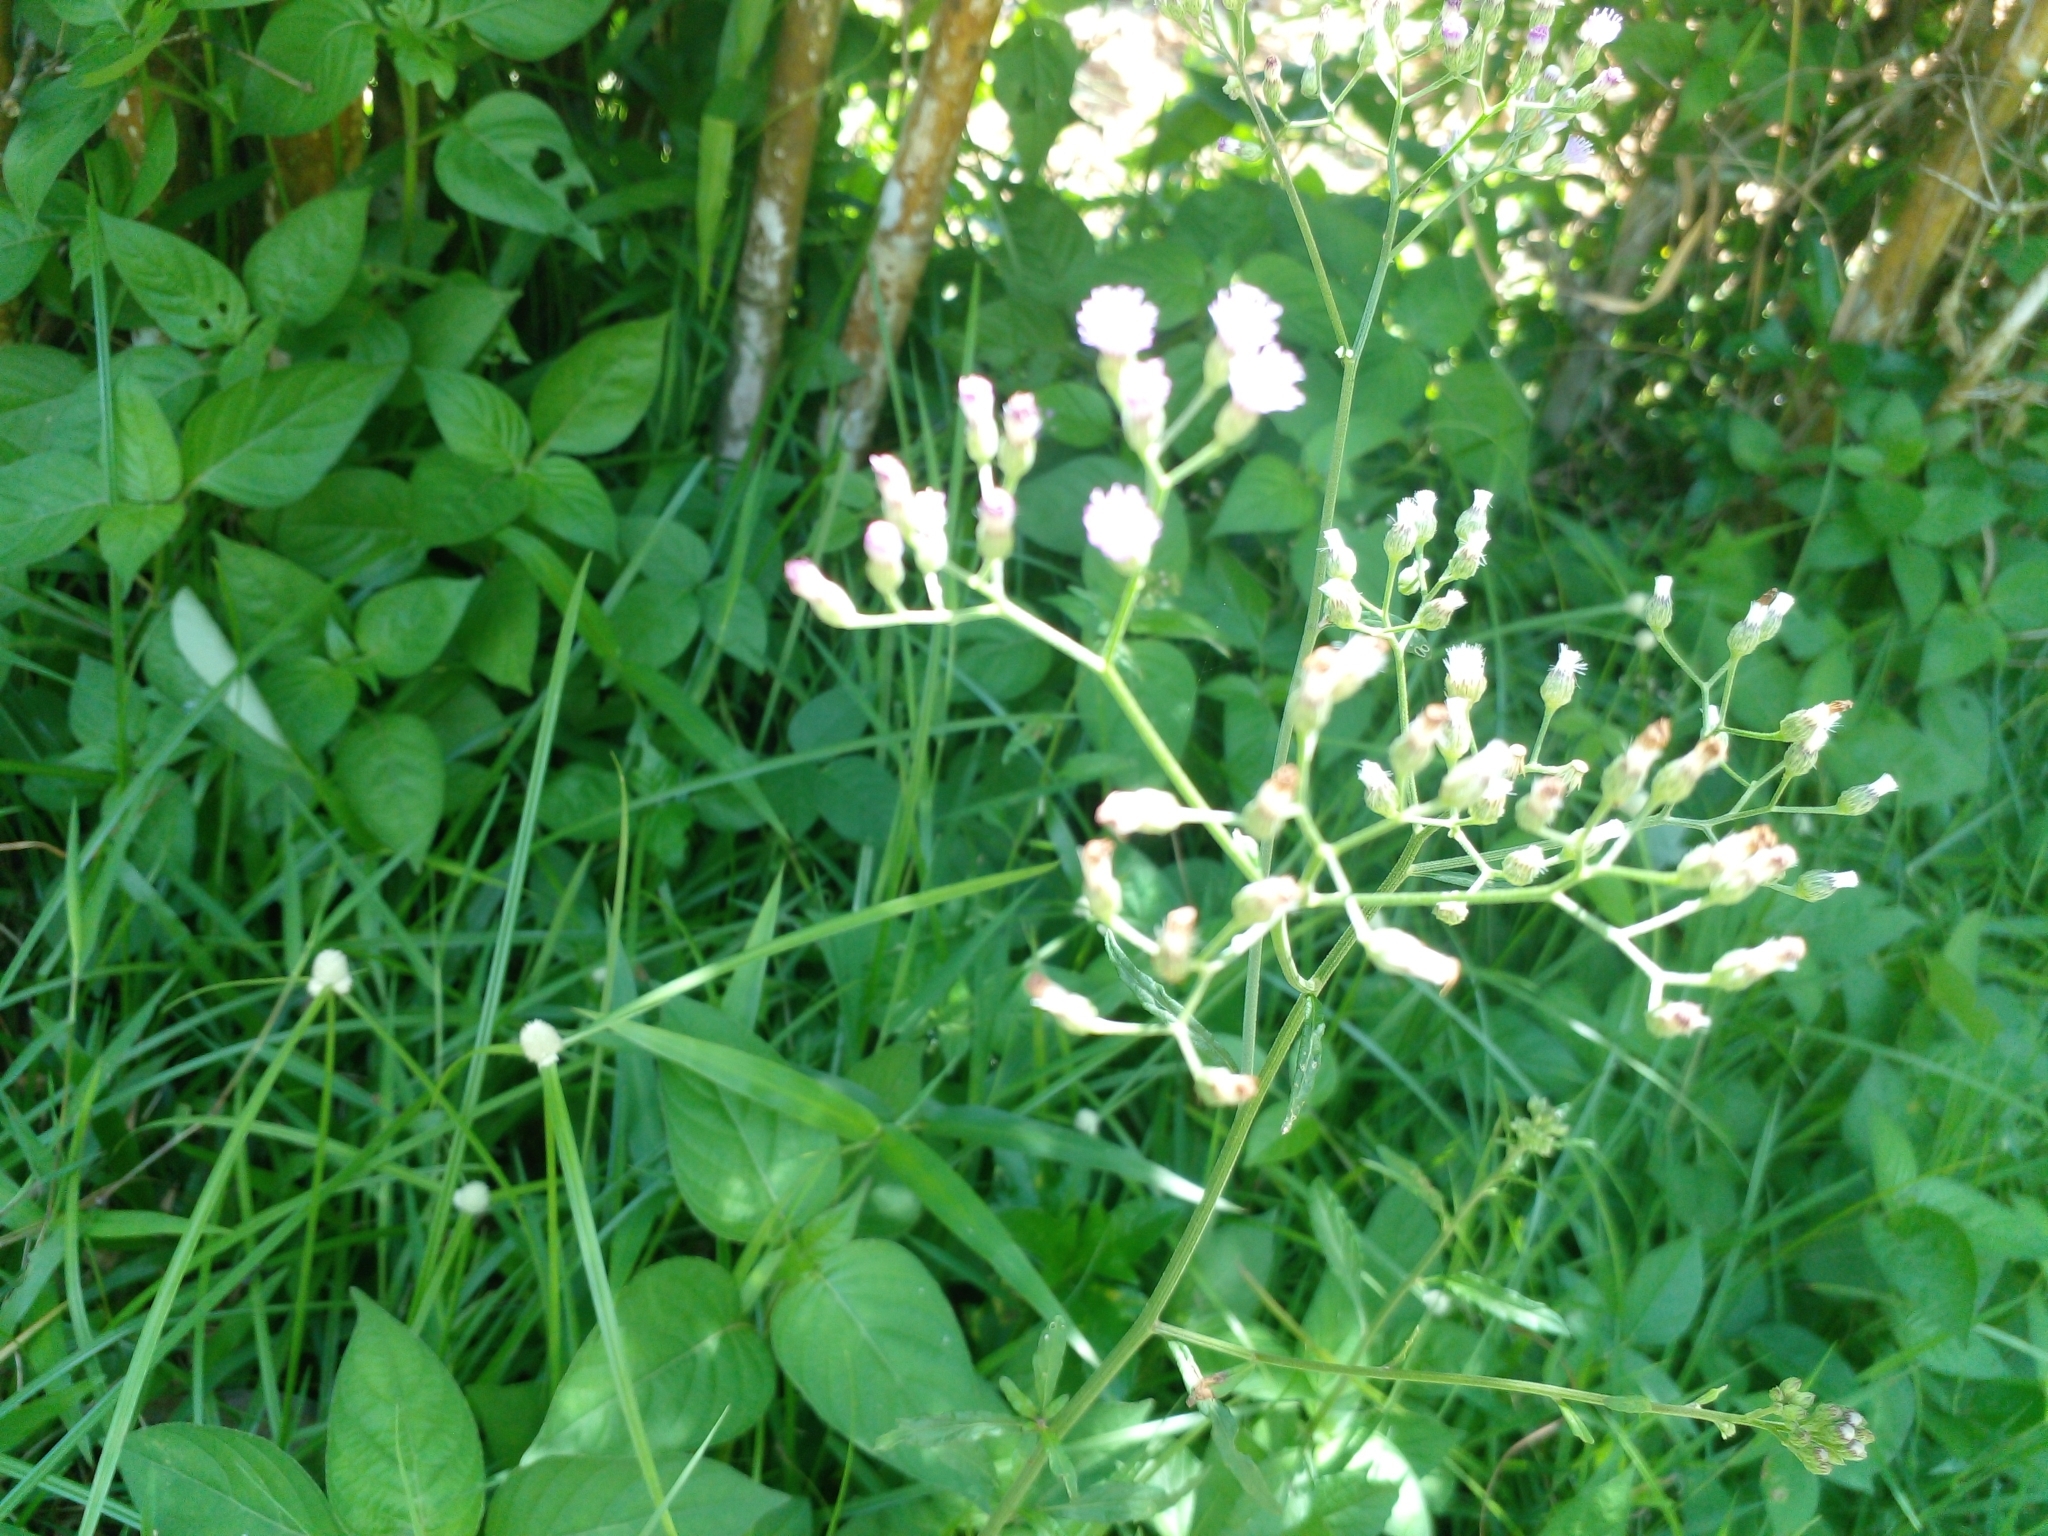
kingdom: Plantae
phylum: Tracheophyta
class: Magnoliopsida
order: Asterales
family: Asteraceae
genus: Cyanthillium
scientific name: Cyanthillium cinereum
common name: Little ironweed
